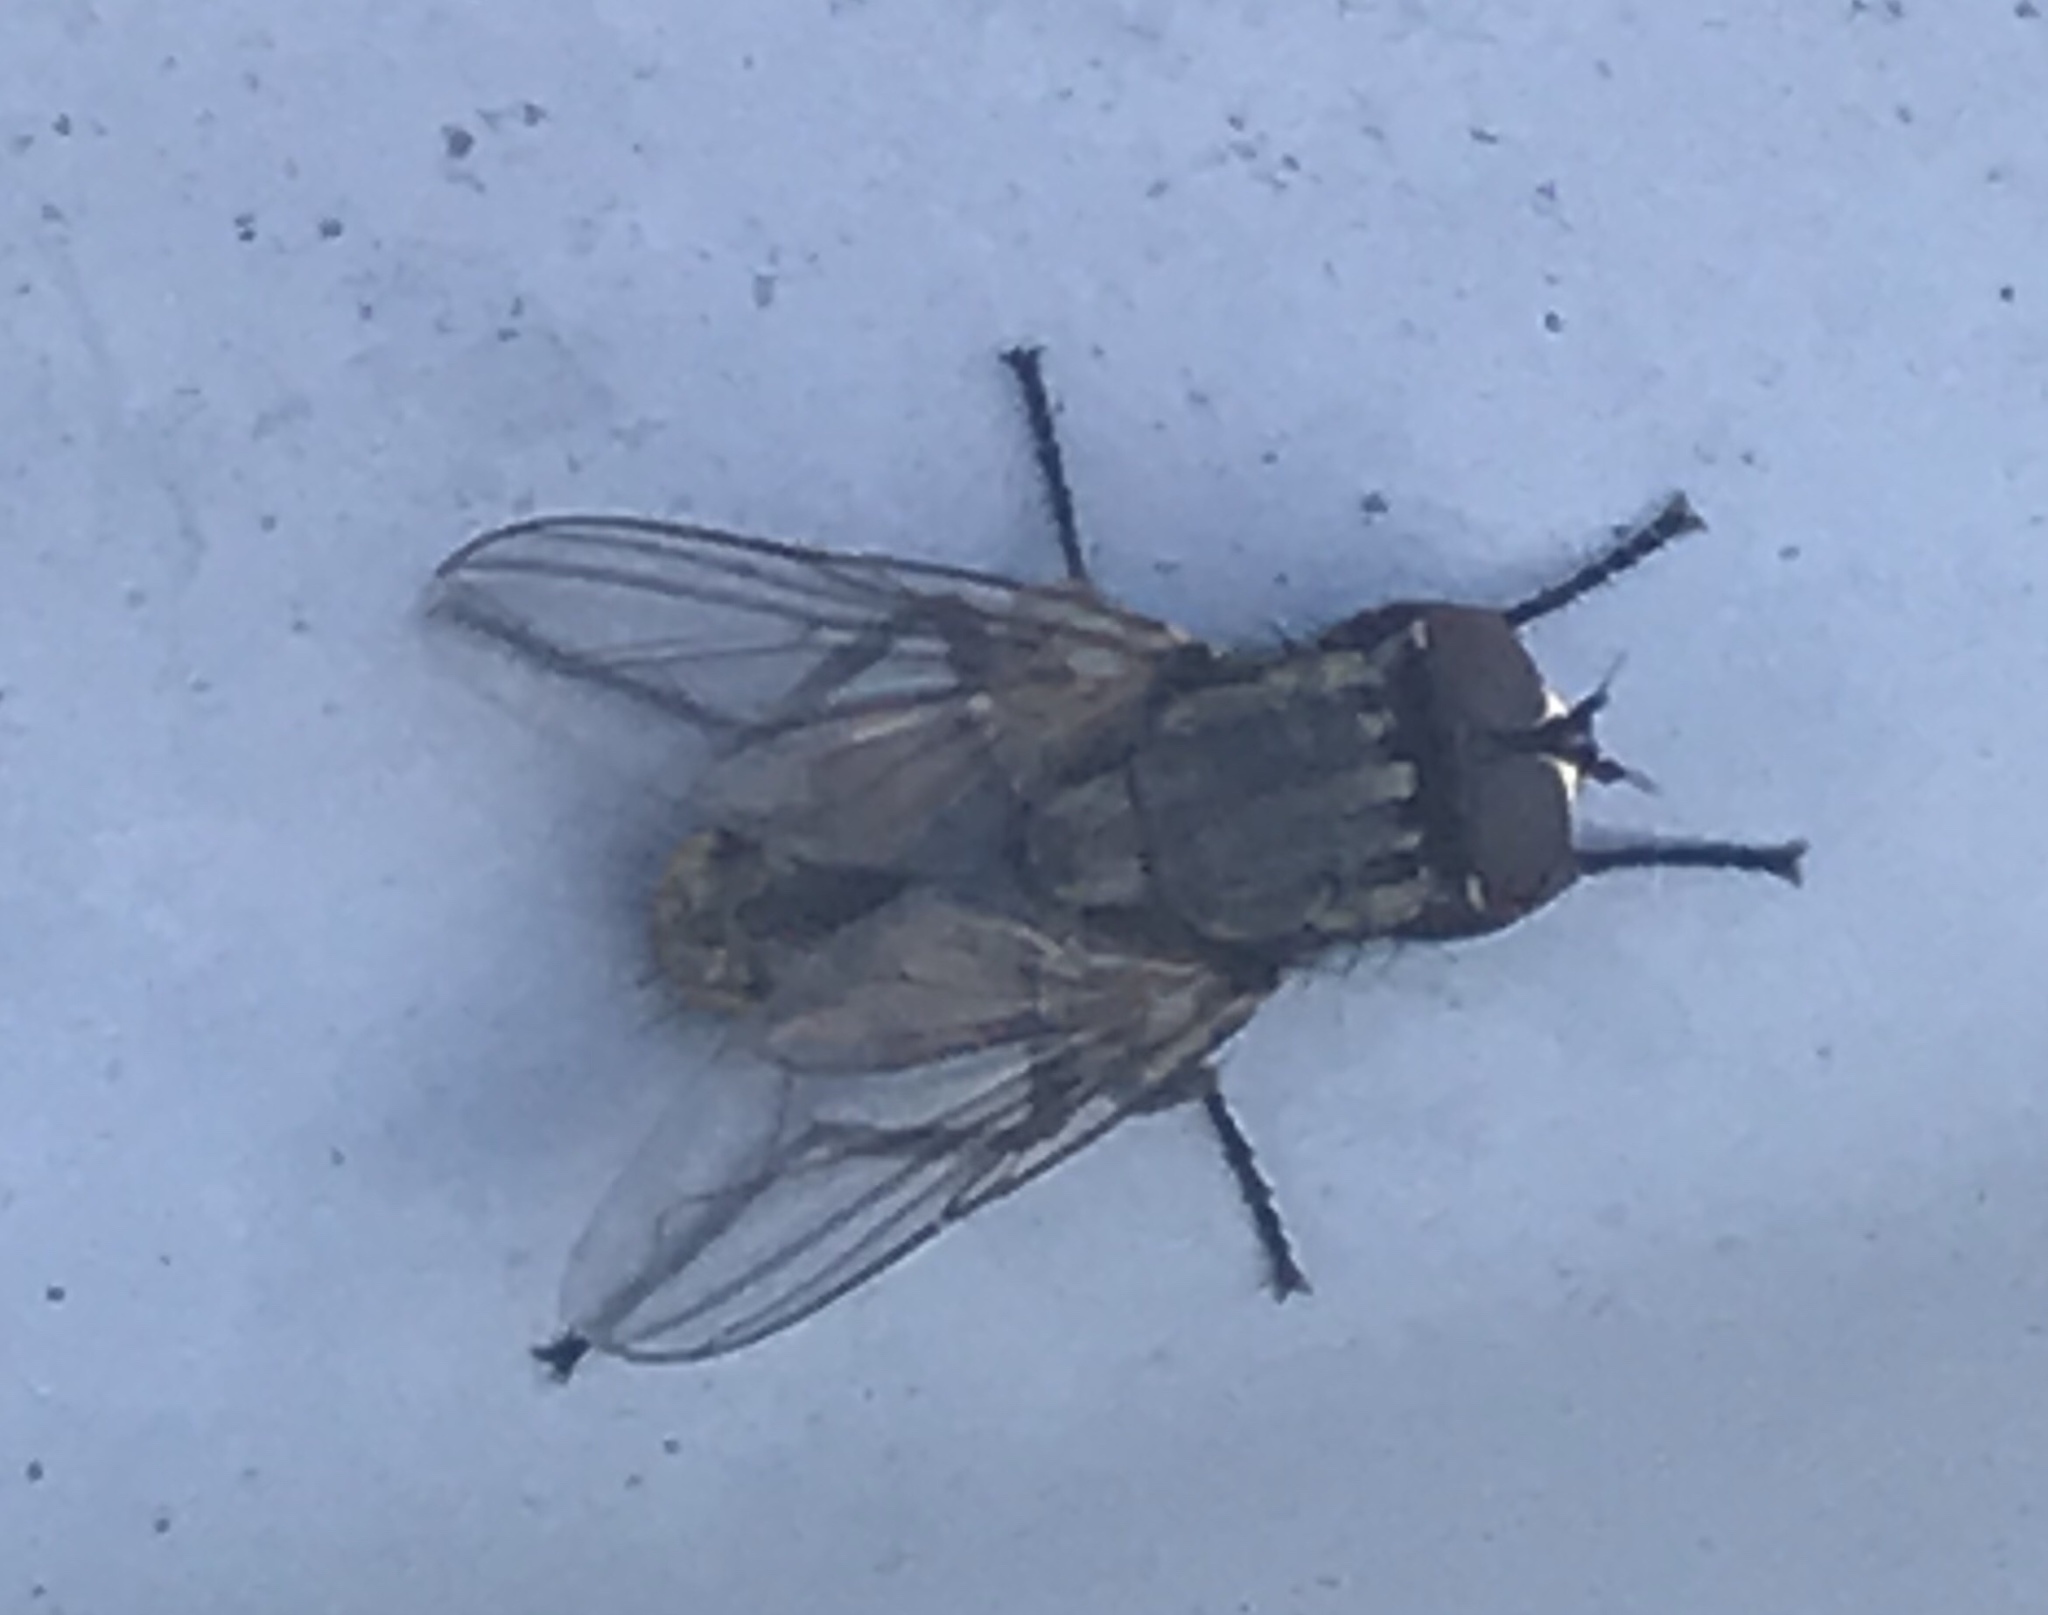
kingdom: Animalia
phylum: Arthropoda
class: Insecta
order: Diptera
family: Muscidae
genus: Musca
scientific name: Musca domestica
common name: House fly
